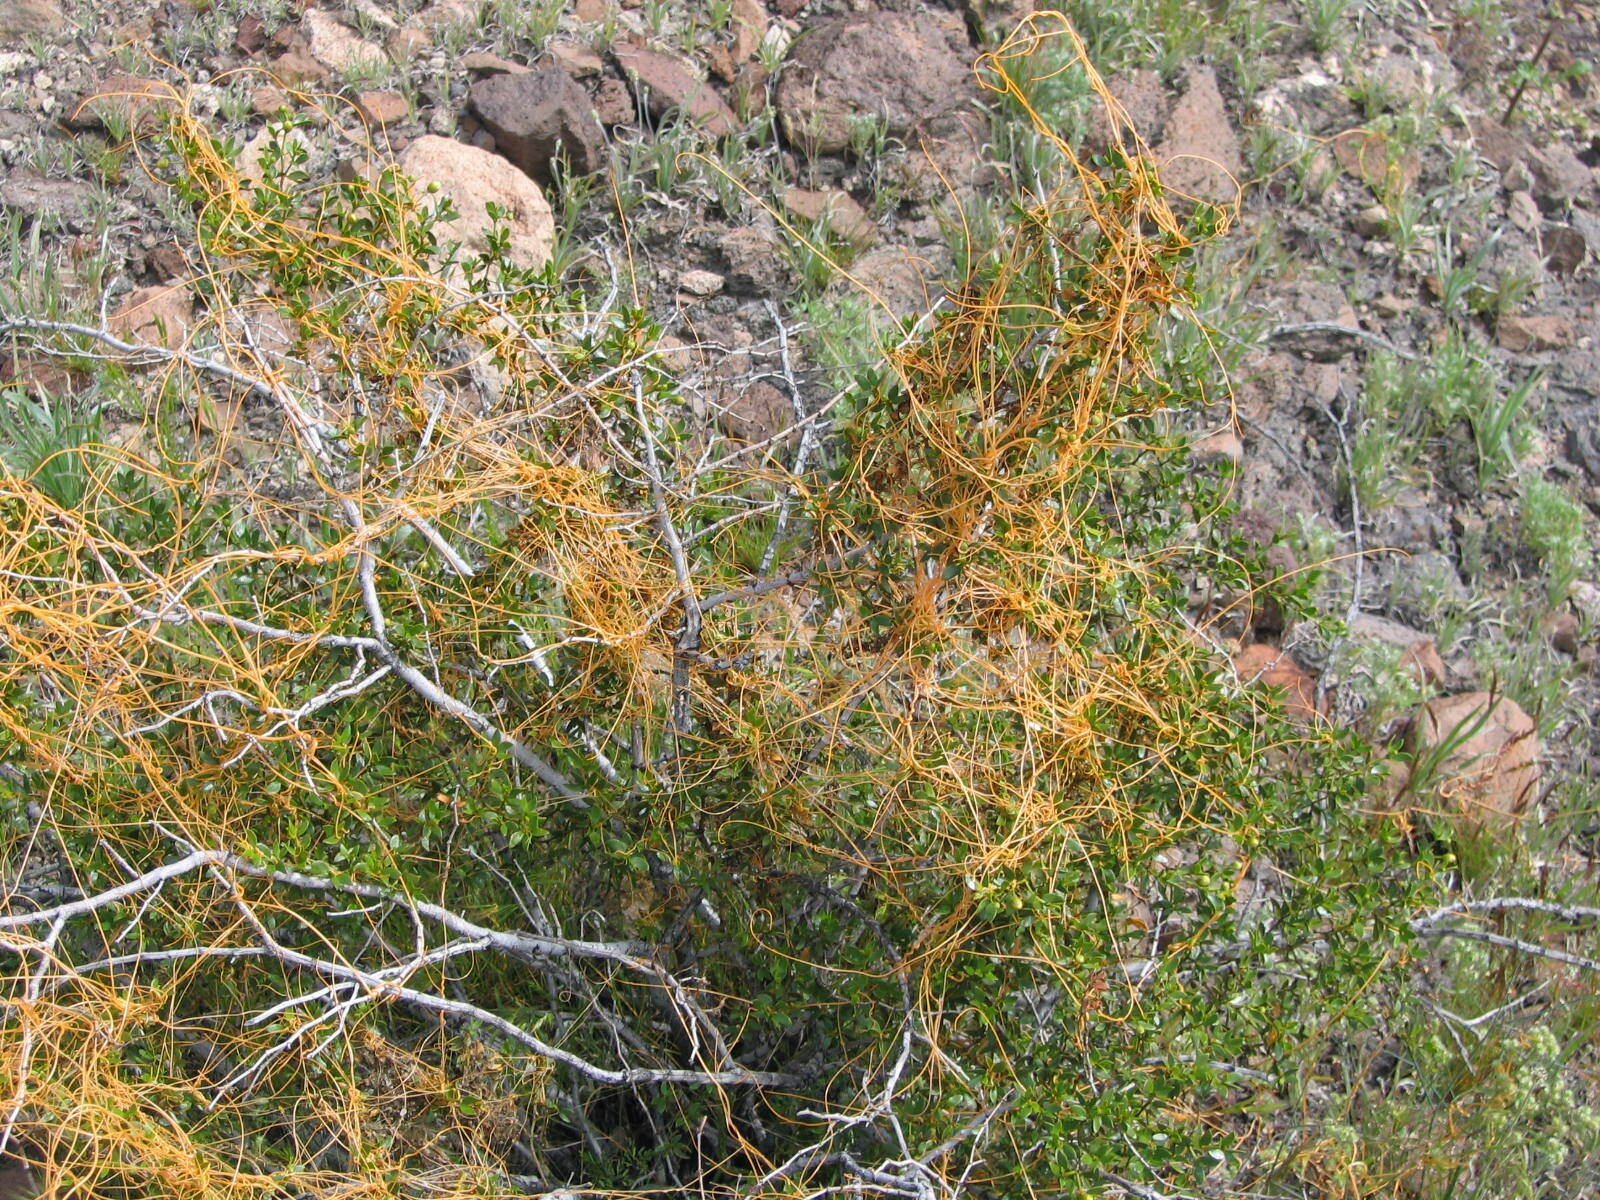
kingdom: Plantae
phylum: Tracheophyta
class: Magnoliopsida
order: Solanales
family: Convolvulaceae
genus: Cuscuta
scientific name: Cuscuta
